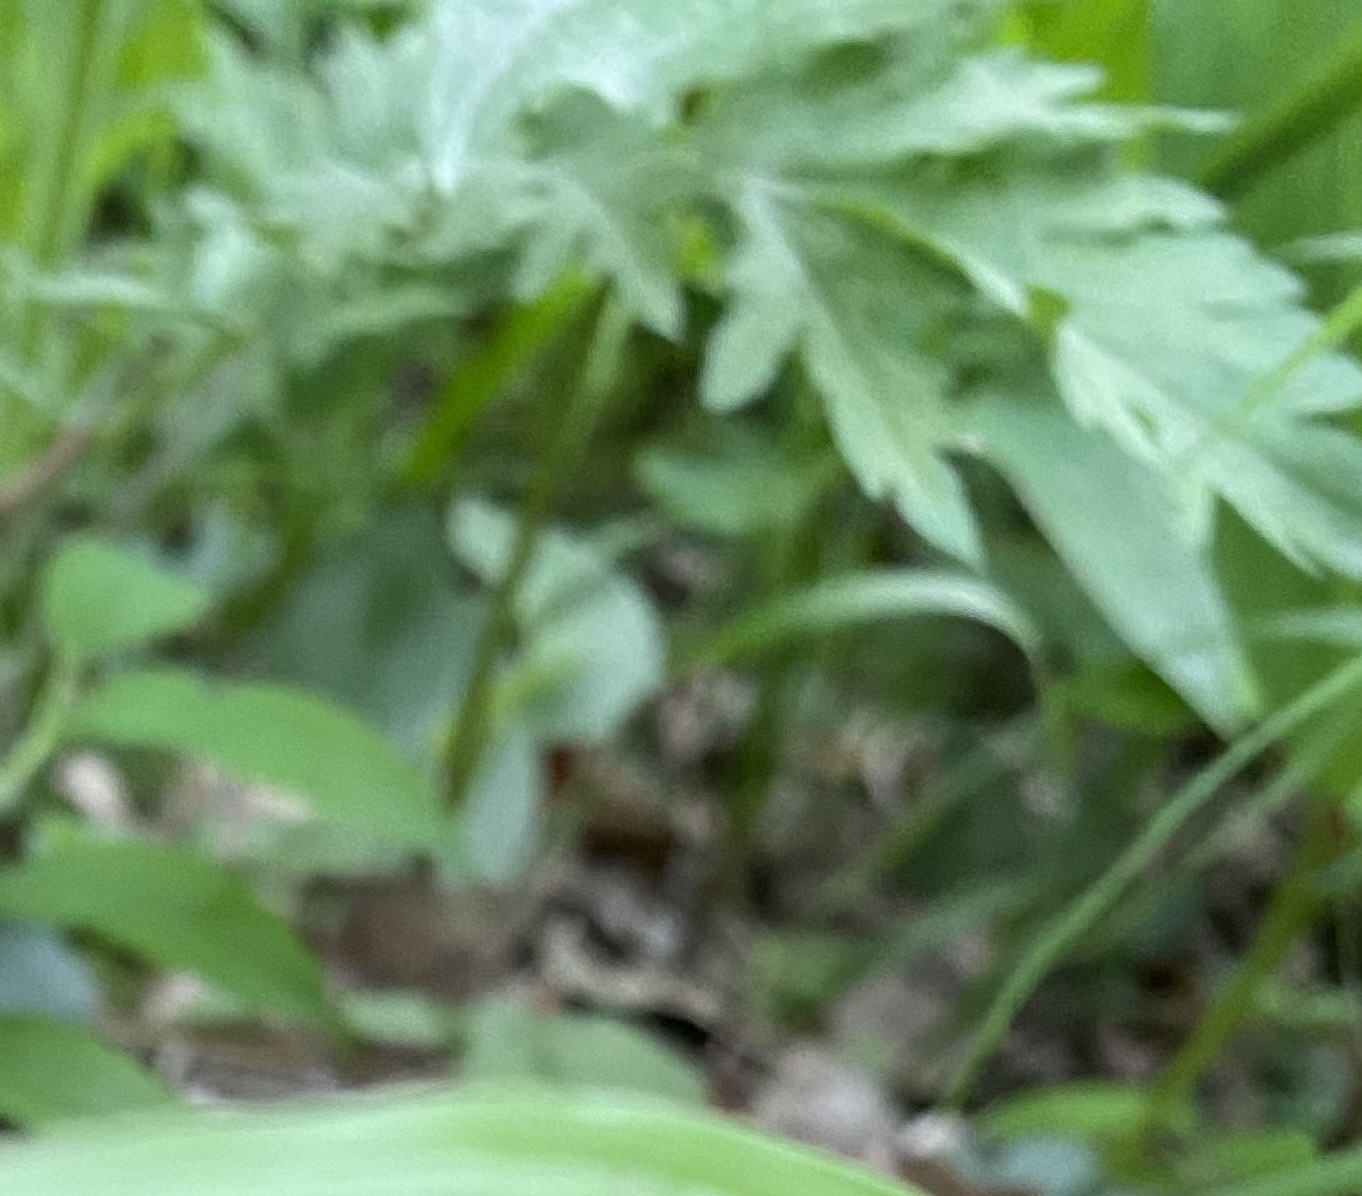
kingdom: Plantae
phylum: Tracheophyta
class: Magnoliopsida
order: Asterales
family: Asteraceae
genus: Ambrosia
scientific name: Ambrosia artemisiifolia
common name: Annual ragweed
